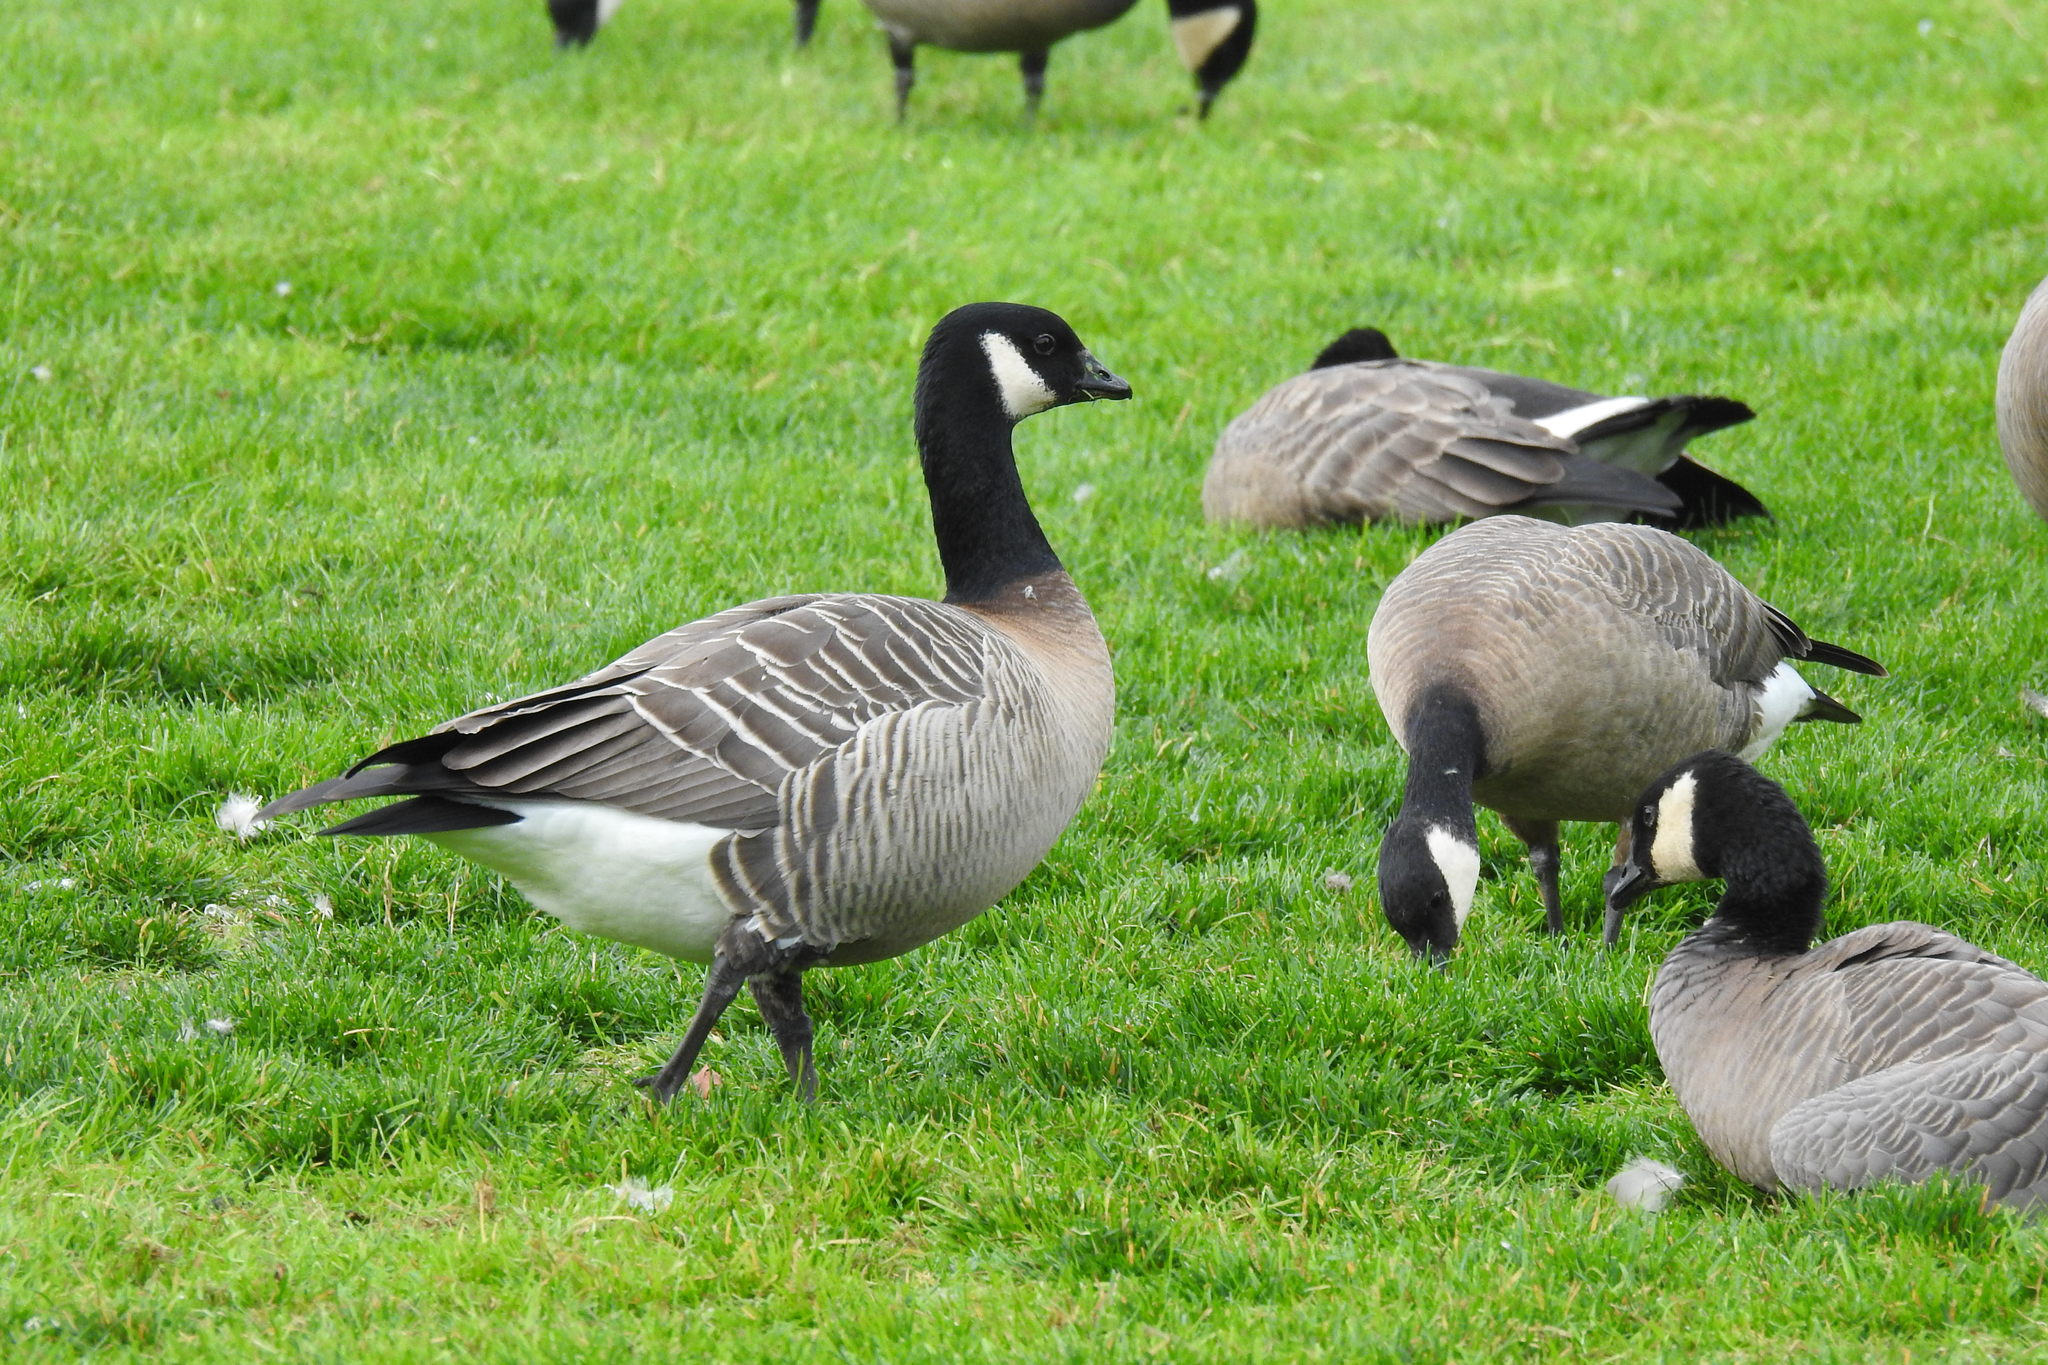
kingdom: Animalia
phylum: Chordata
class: Aves
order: Anseriformes
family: Anatidae
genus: Branta
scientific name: Branta hutchinsii
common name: Cackling goose
